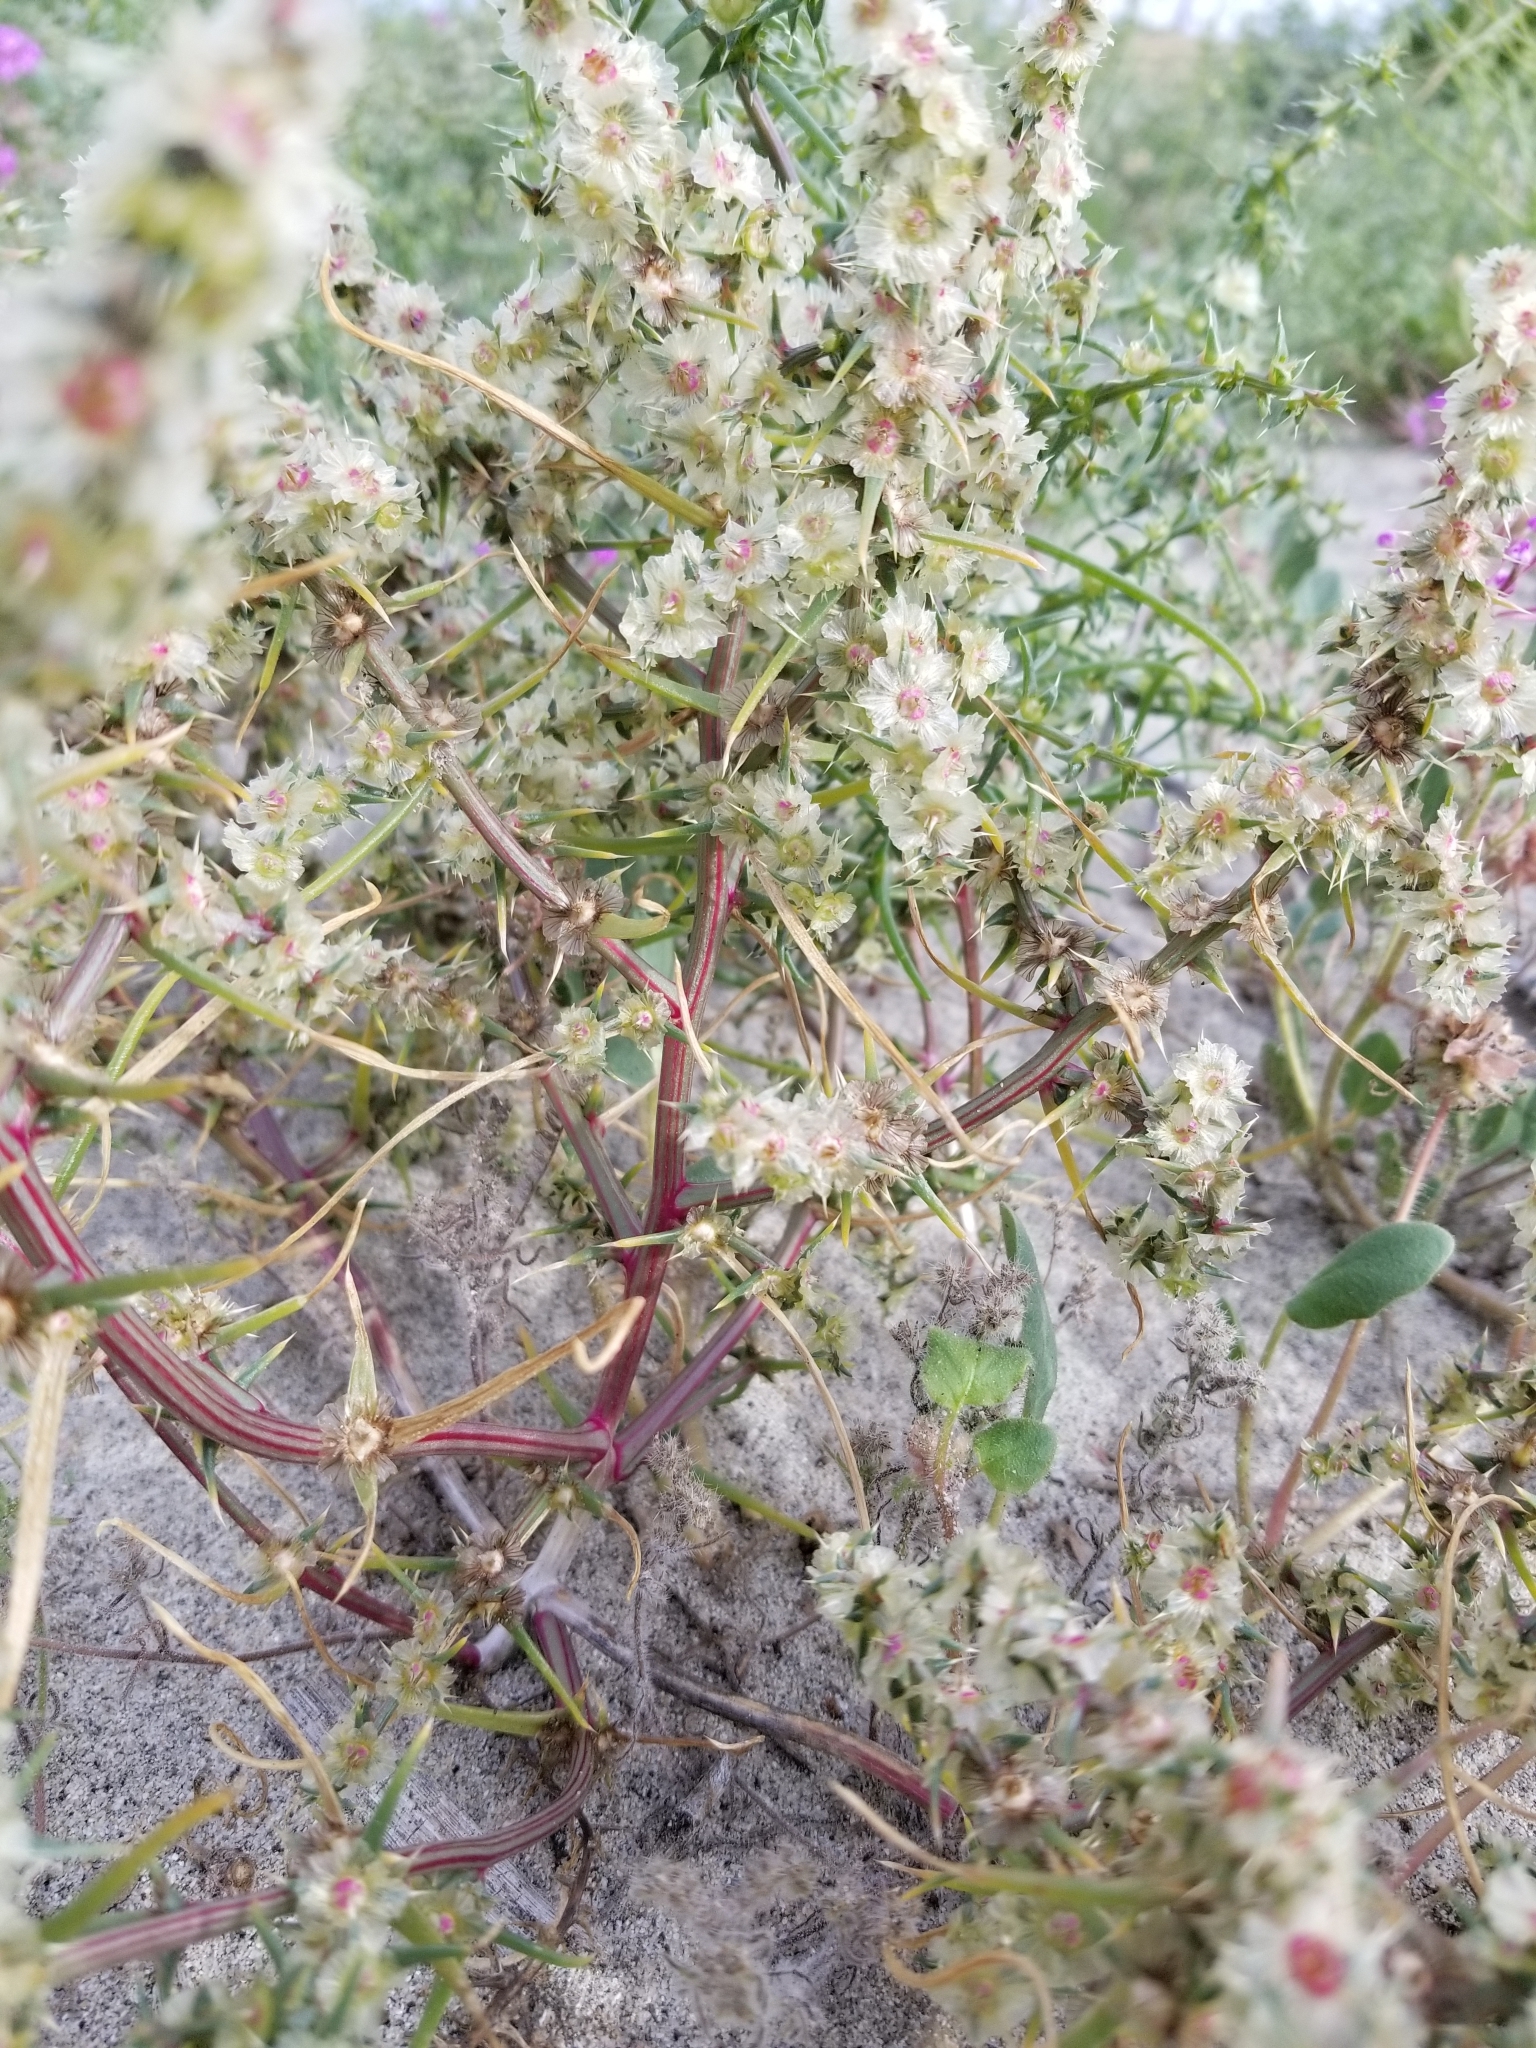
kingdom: Plantae
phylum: Tracheophyta
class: Magnoliopsida
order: Caryophyllales
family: Amaranthaceae
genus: Salsola
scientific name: Salsola tragus
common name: Prickly russian thistle
